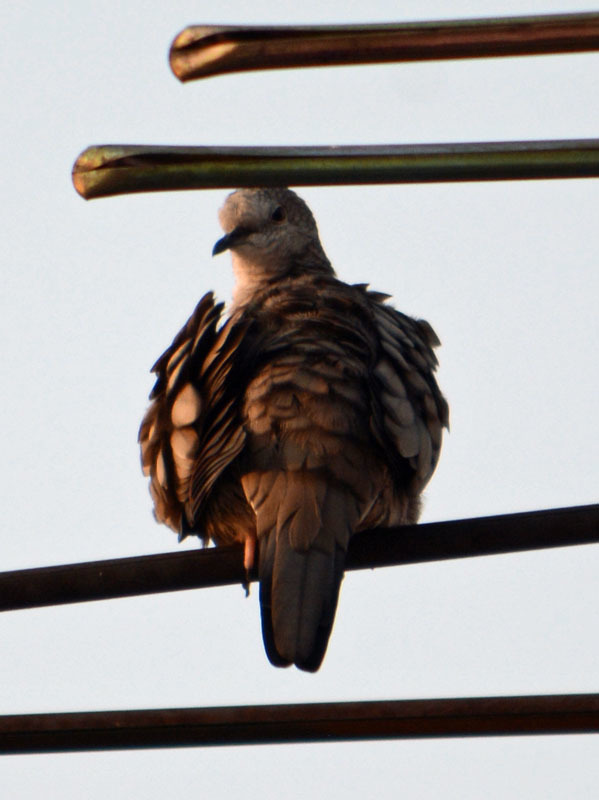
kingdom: Animalia
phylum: Chordata
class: Aves
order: Columbiformes
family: Columbidae
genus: Columbina
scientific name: Columbina inca
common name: Inca dove
